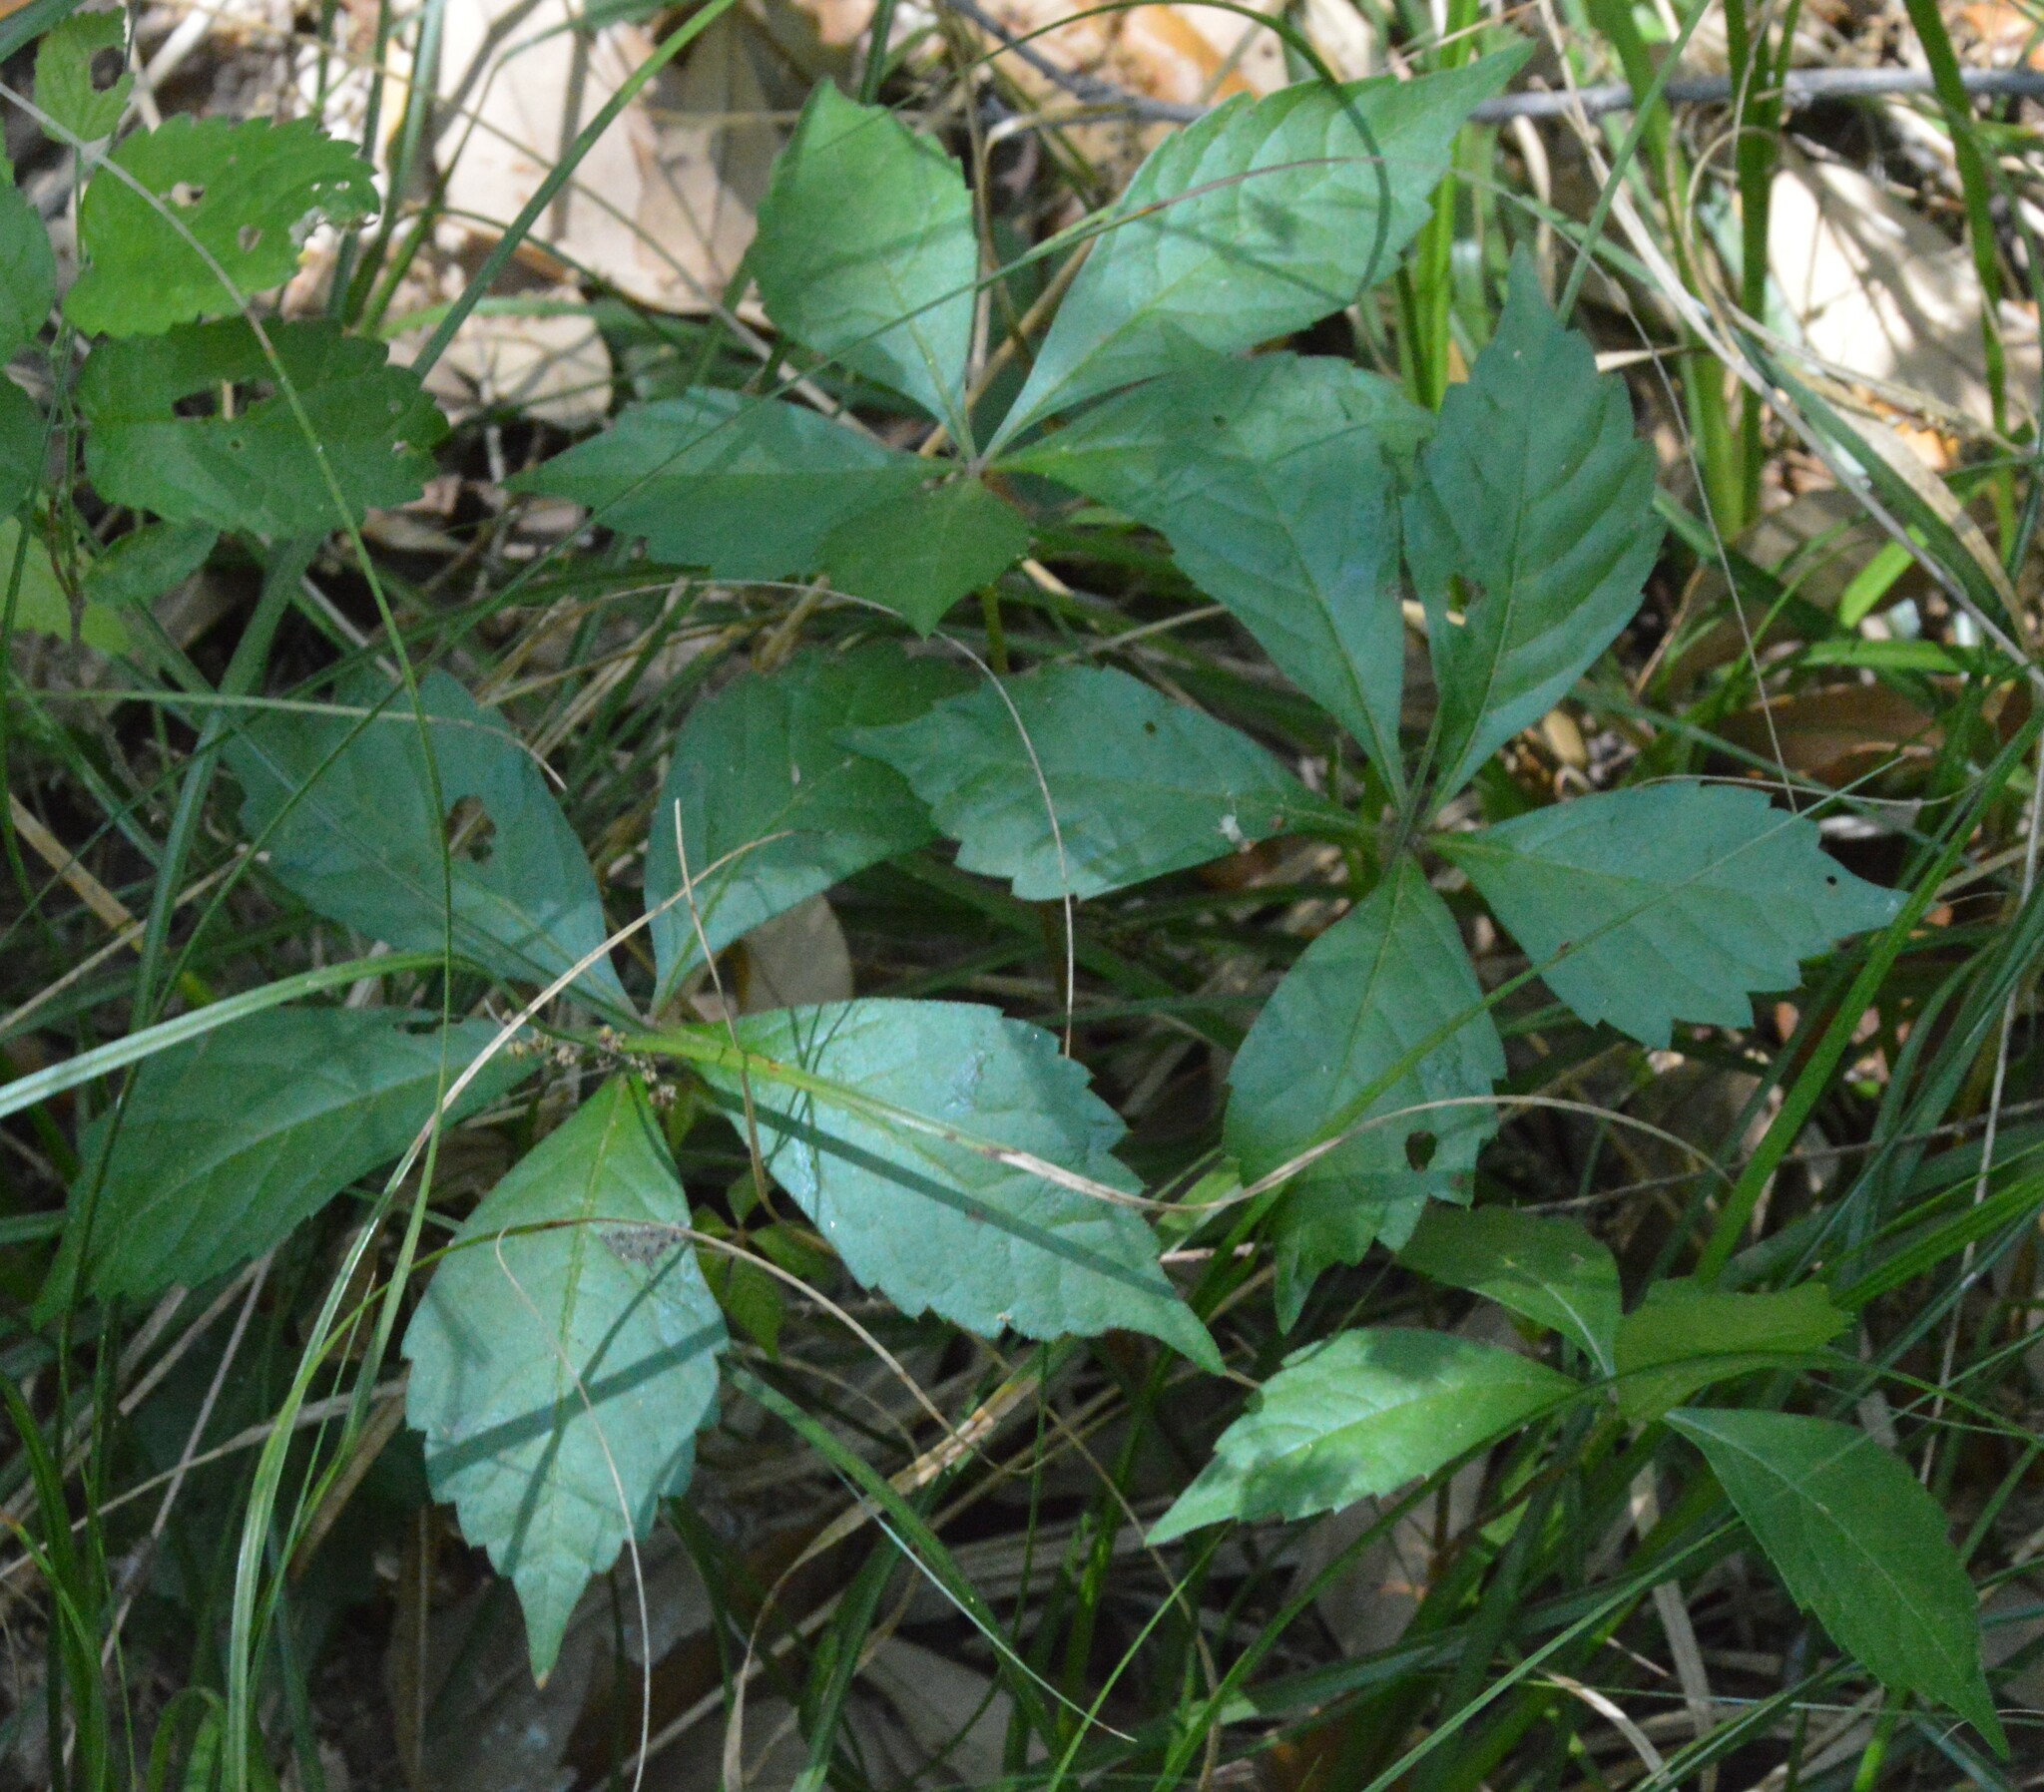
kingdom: Plantae
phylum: Tracheophyta
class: Magnoliopsida
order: Vitales
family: Vitaceae
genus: Parthenocissus
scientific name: Parthenocissus quinquefolia
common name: Virginia-creeper
